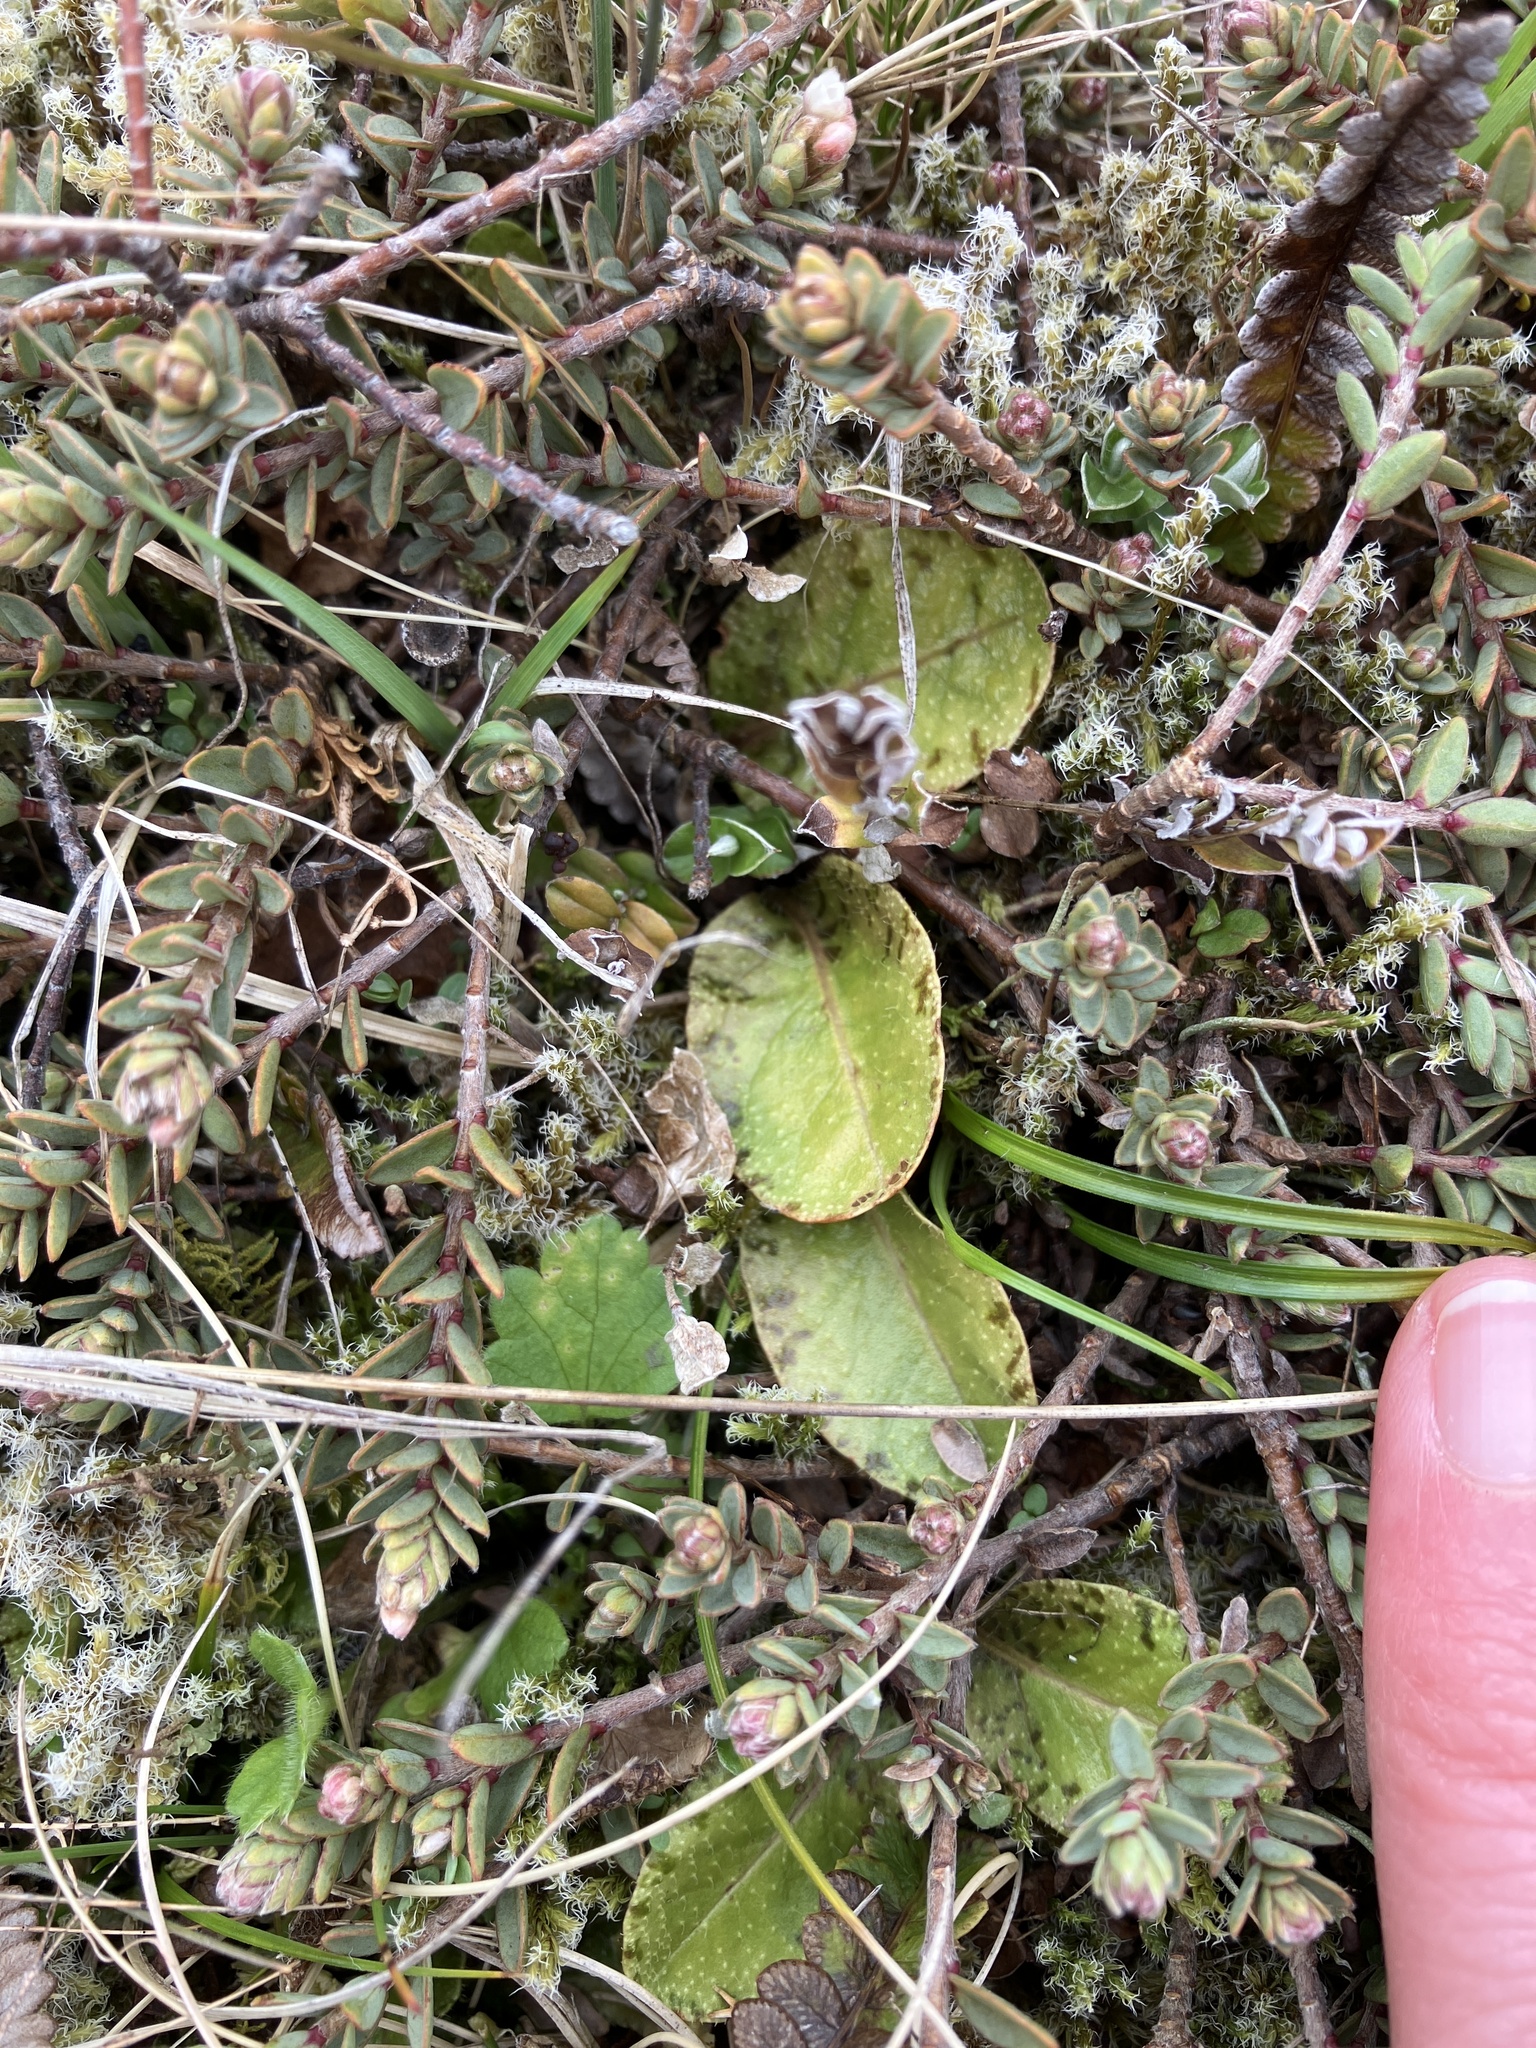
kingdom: Plantae
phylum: Tracheophyta
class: Magnoliopsida
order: Lamiales
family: Mazaceae
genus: Mazus
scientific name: Mazus radicans
